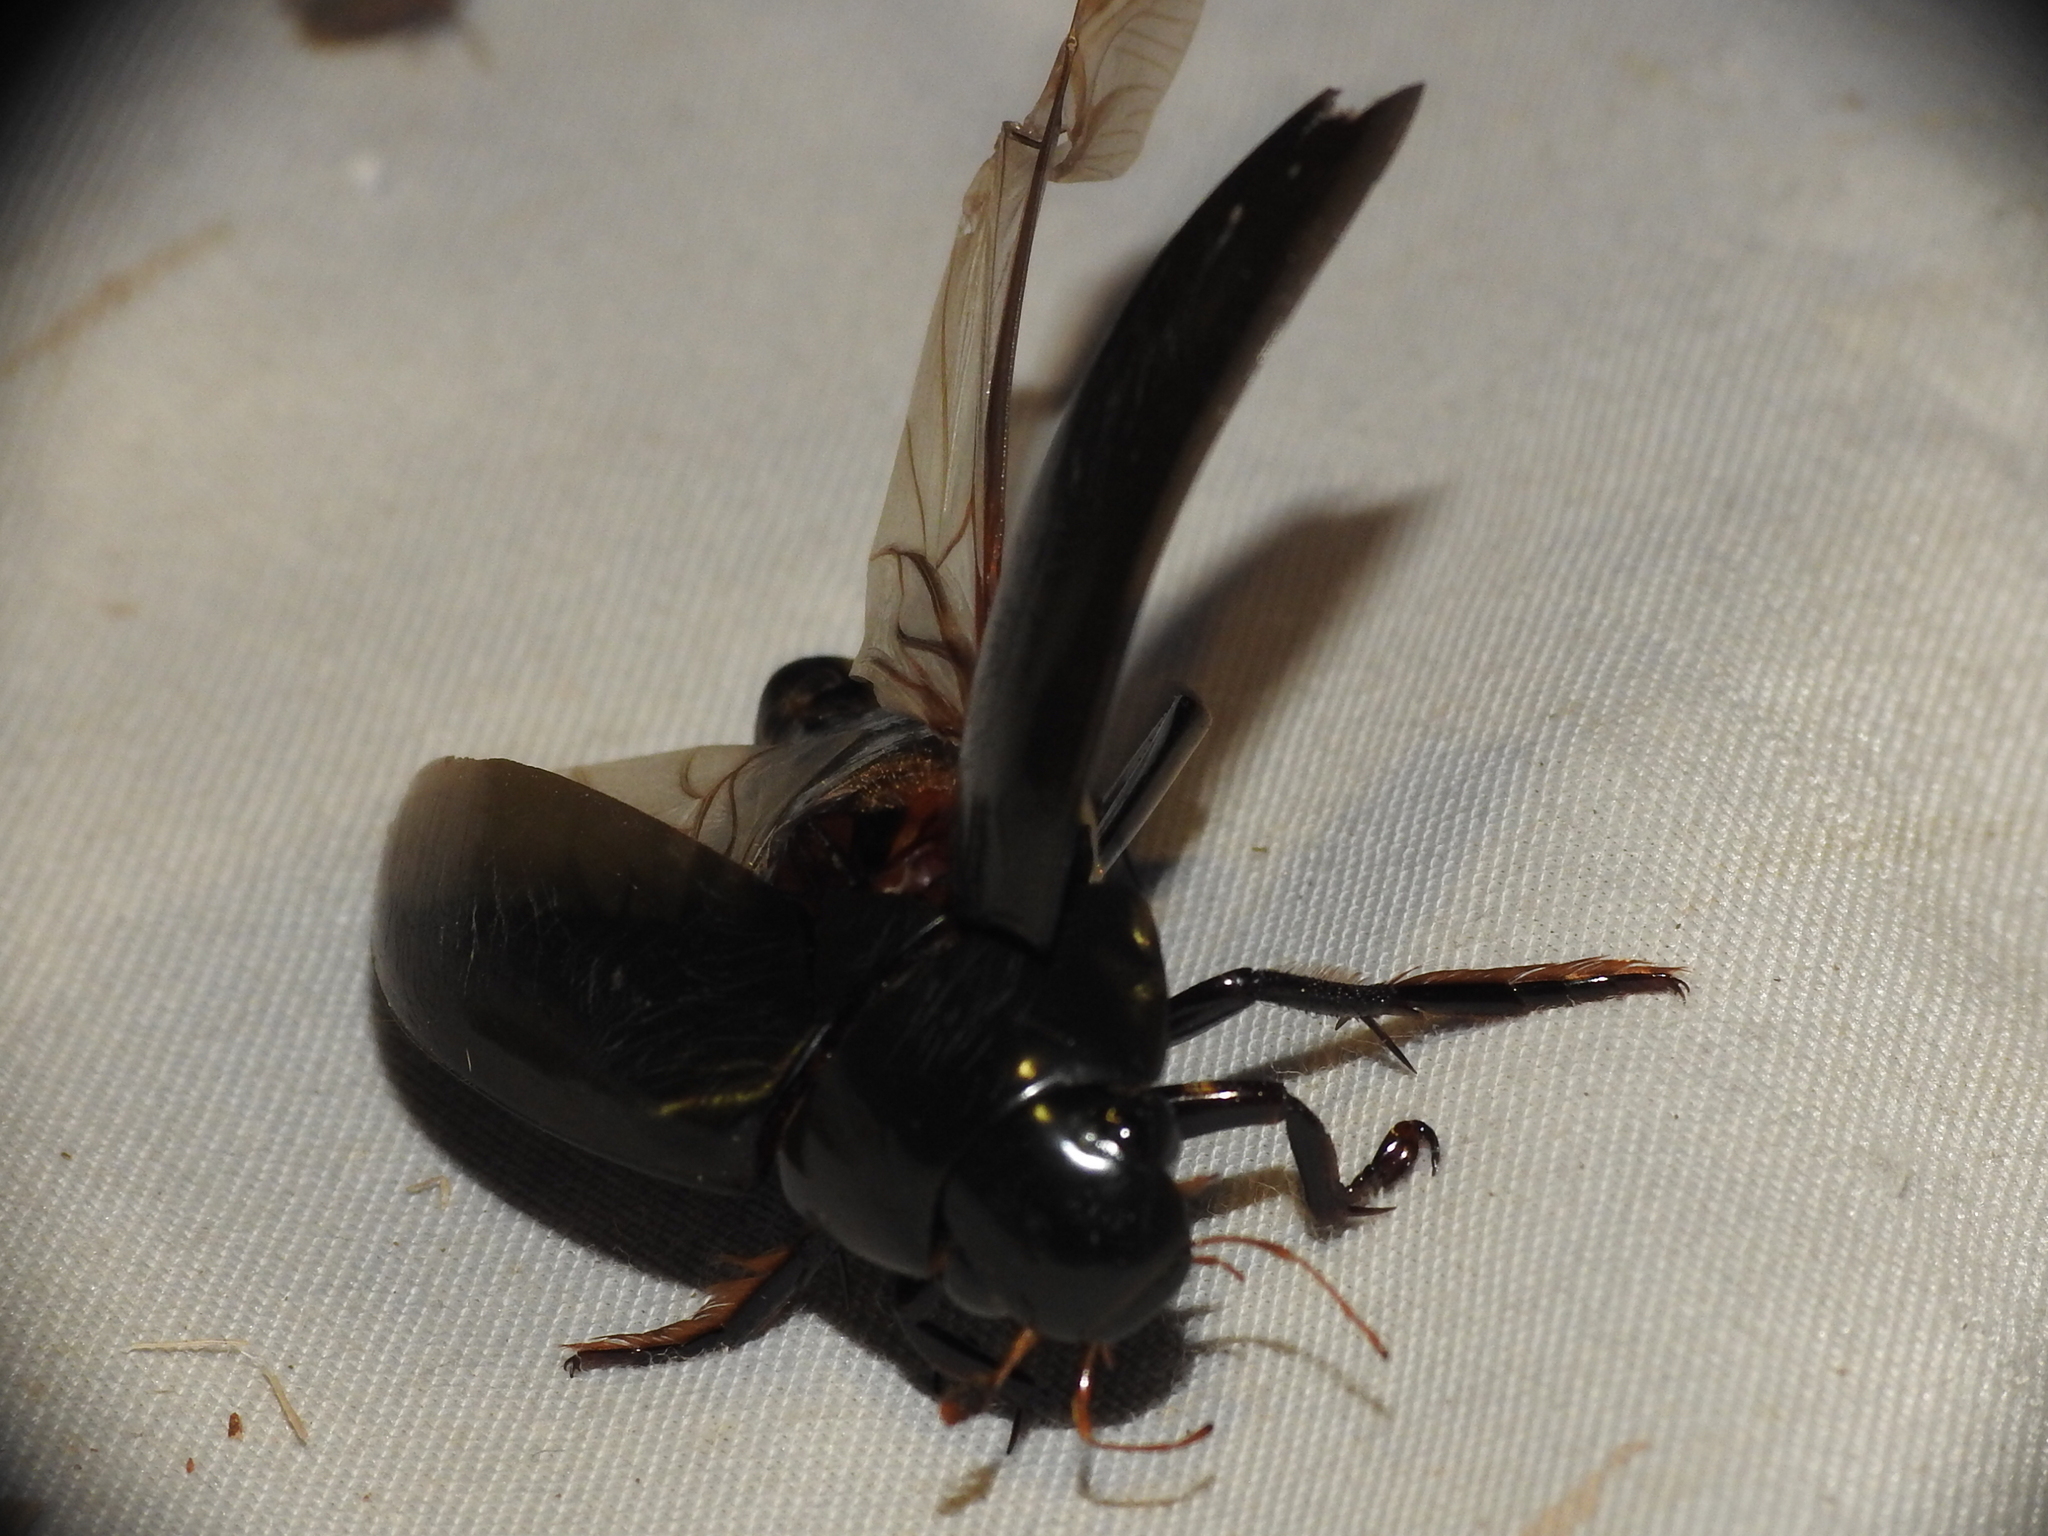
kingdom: Animalia
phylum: Arthropoda
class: Insecta
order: Coleoptera
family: Hydrophilidae
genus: Hydrophilus
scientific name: Hydrophilus triangularis
